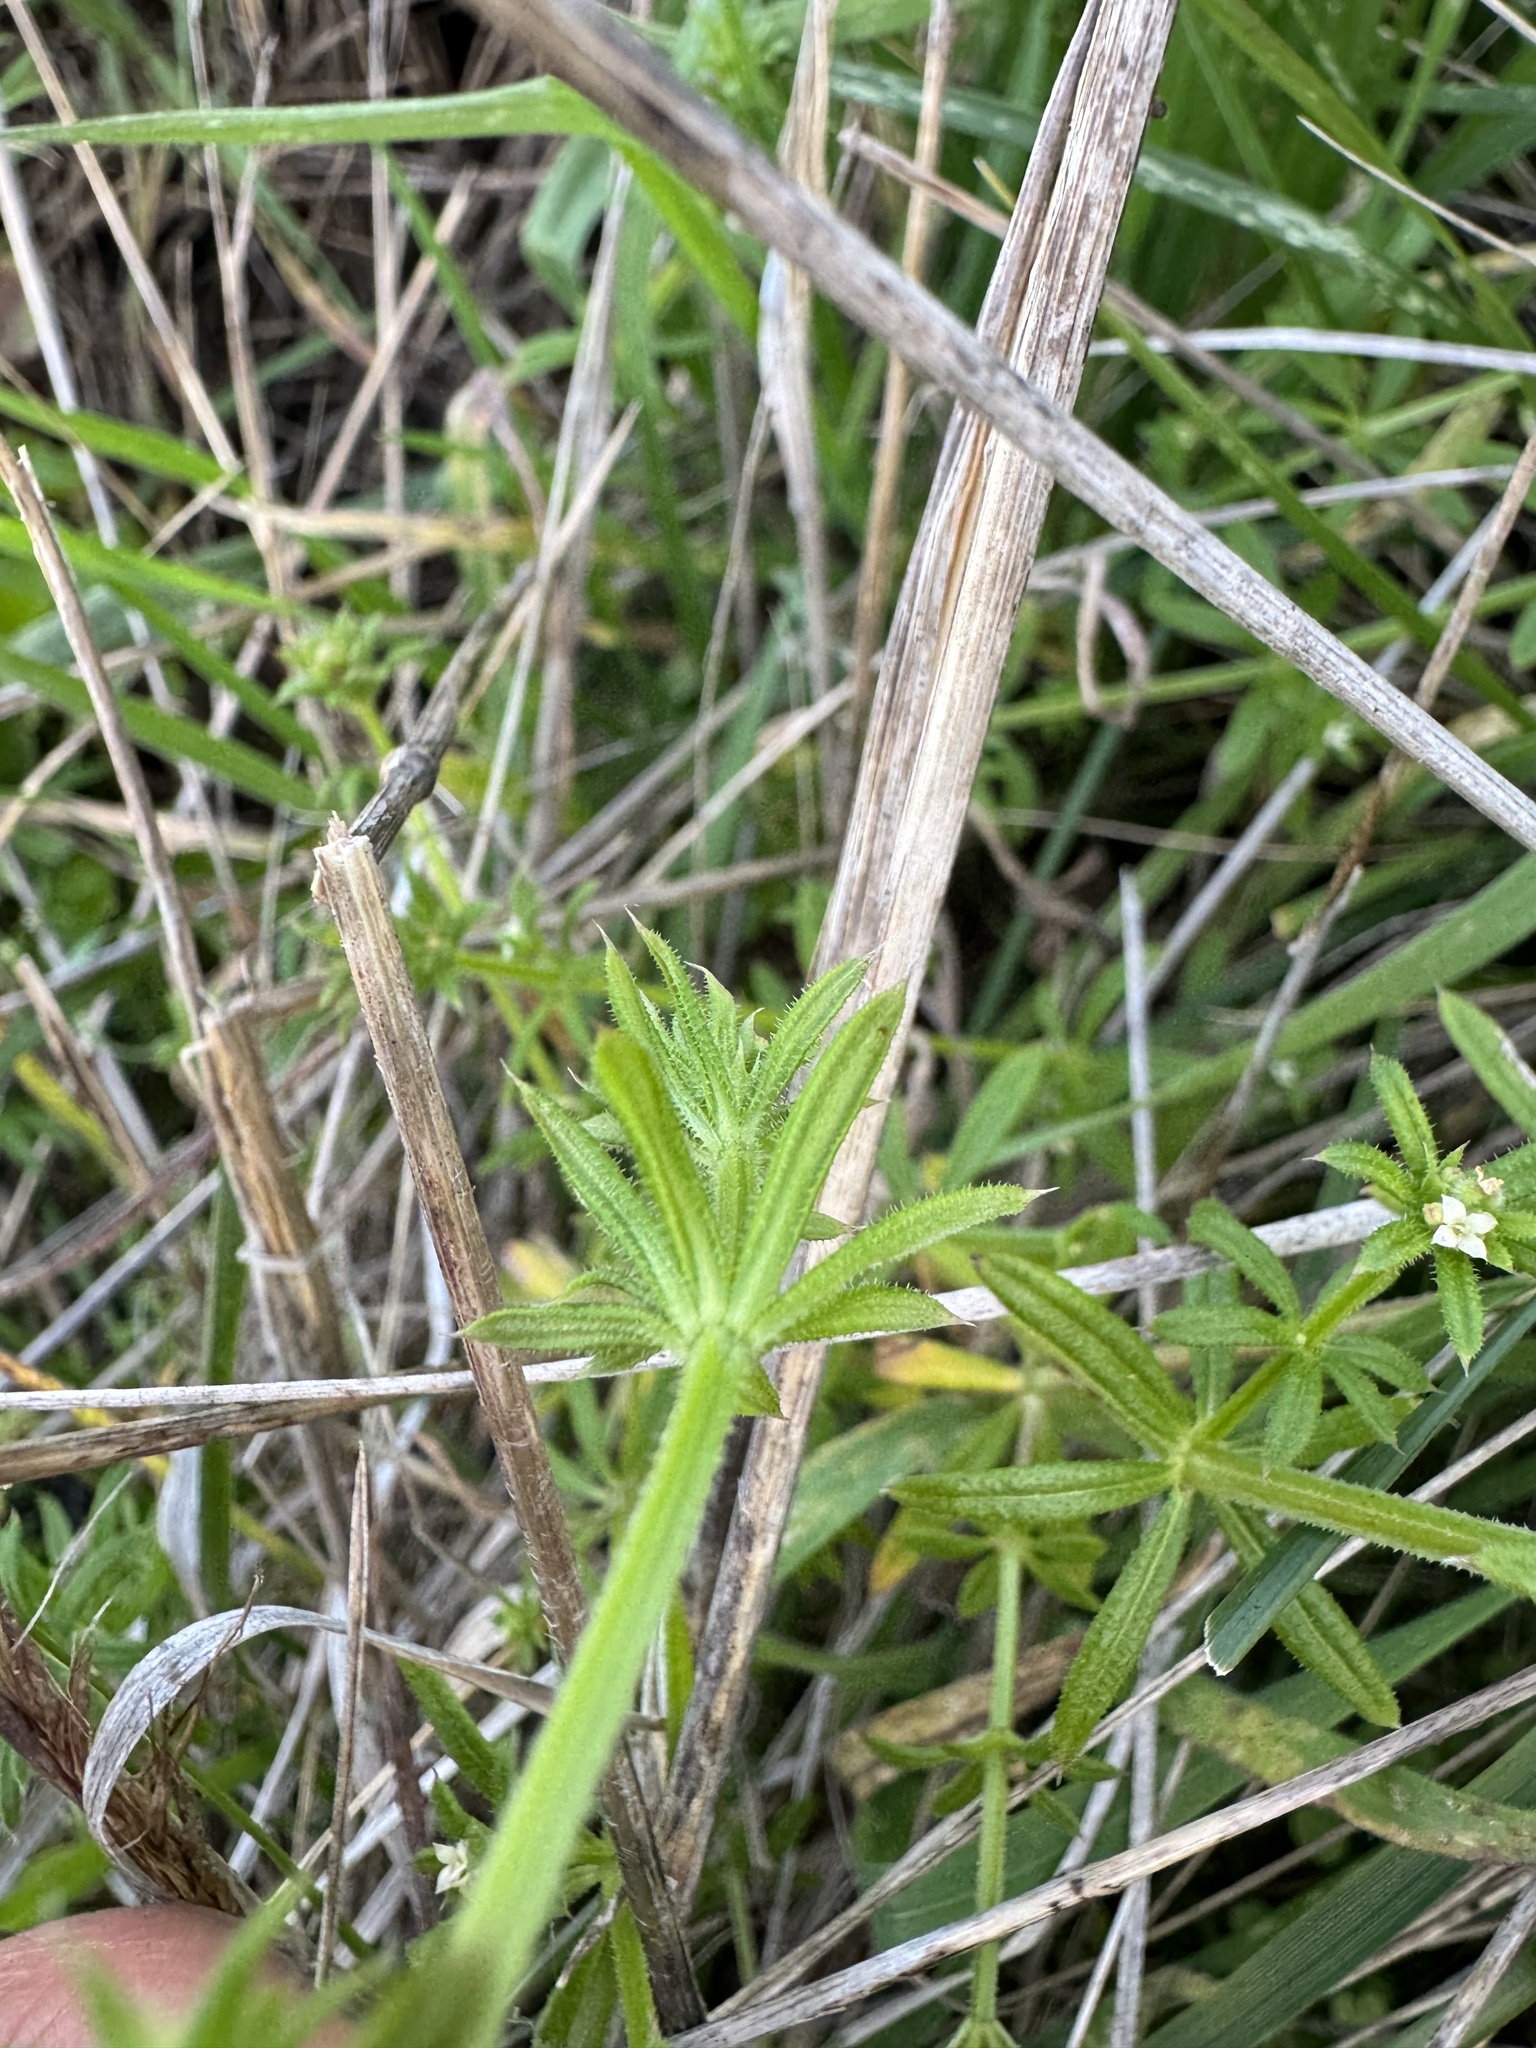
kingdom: Plantae
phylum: Tracheophyta
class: Magnoliopsida
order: Gentianales
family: Rubiaceae
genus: Galium
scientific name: Galium aparine
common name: Cleavers
